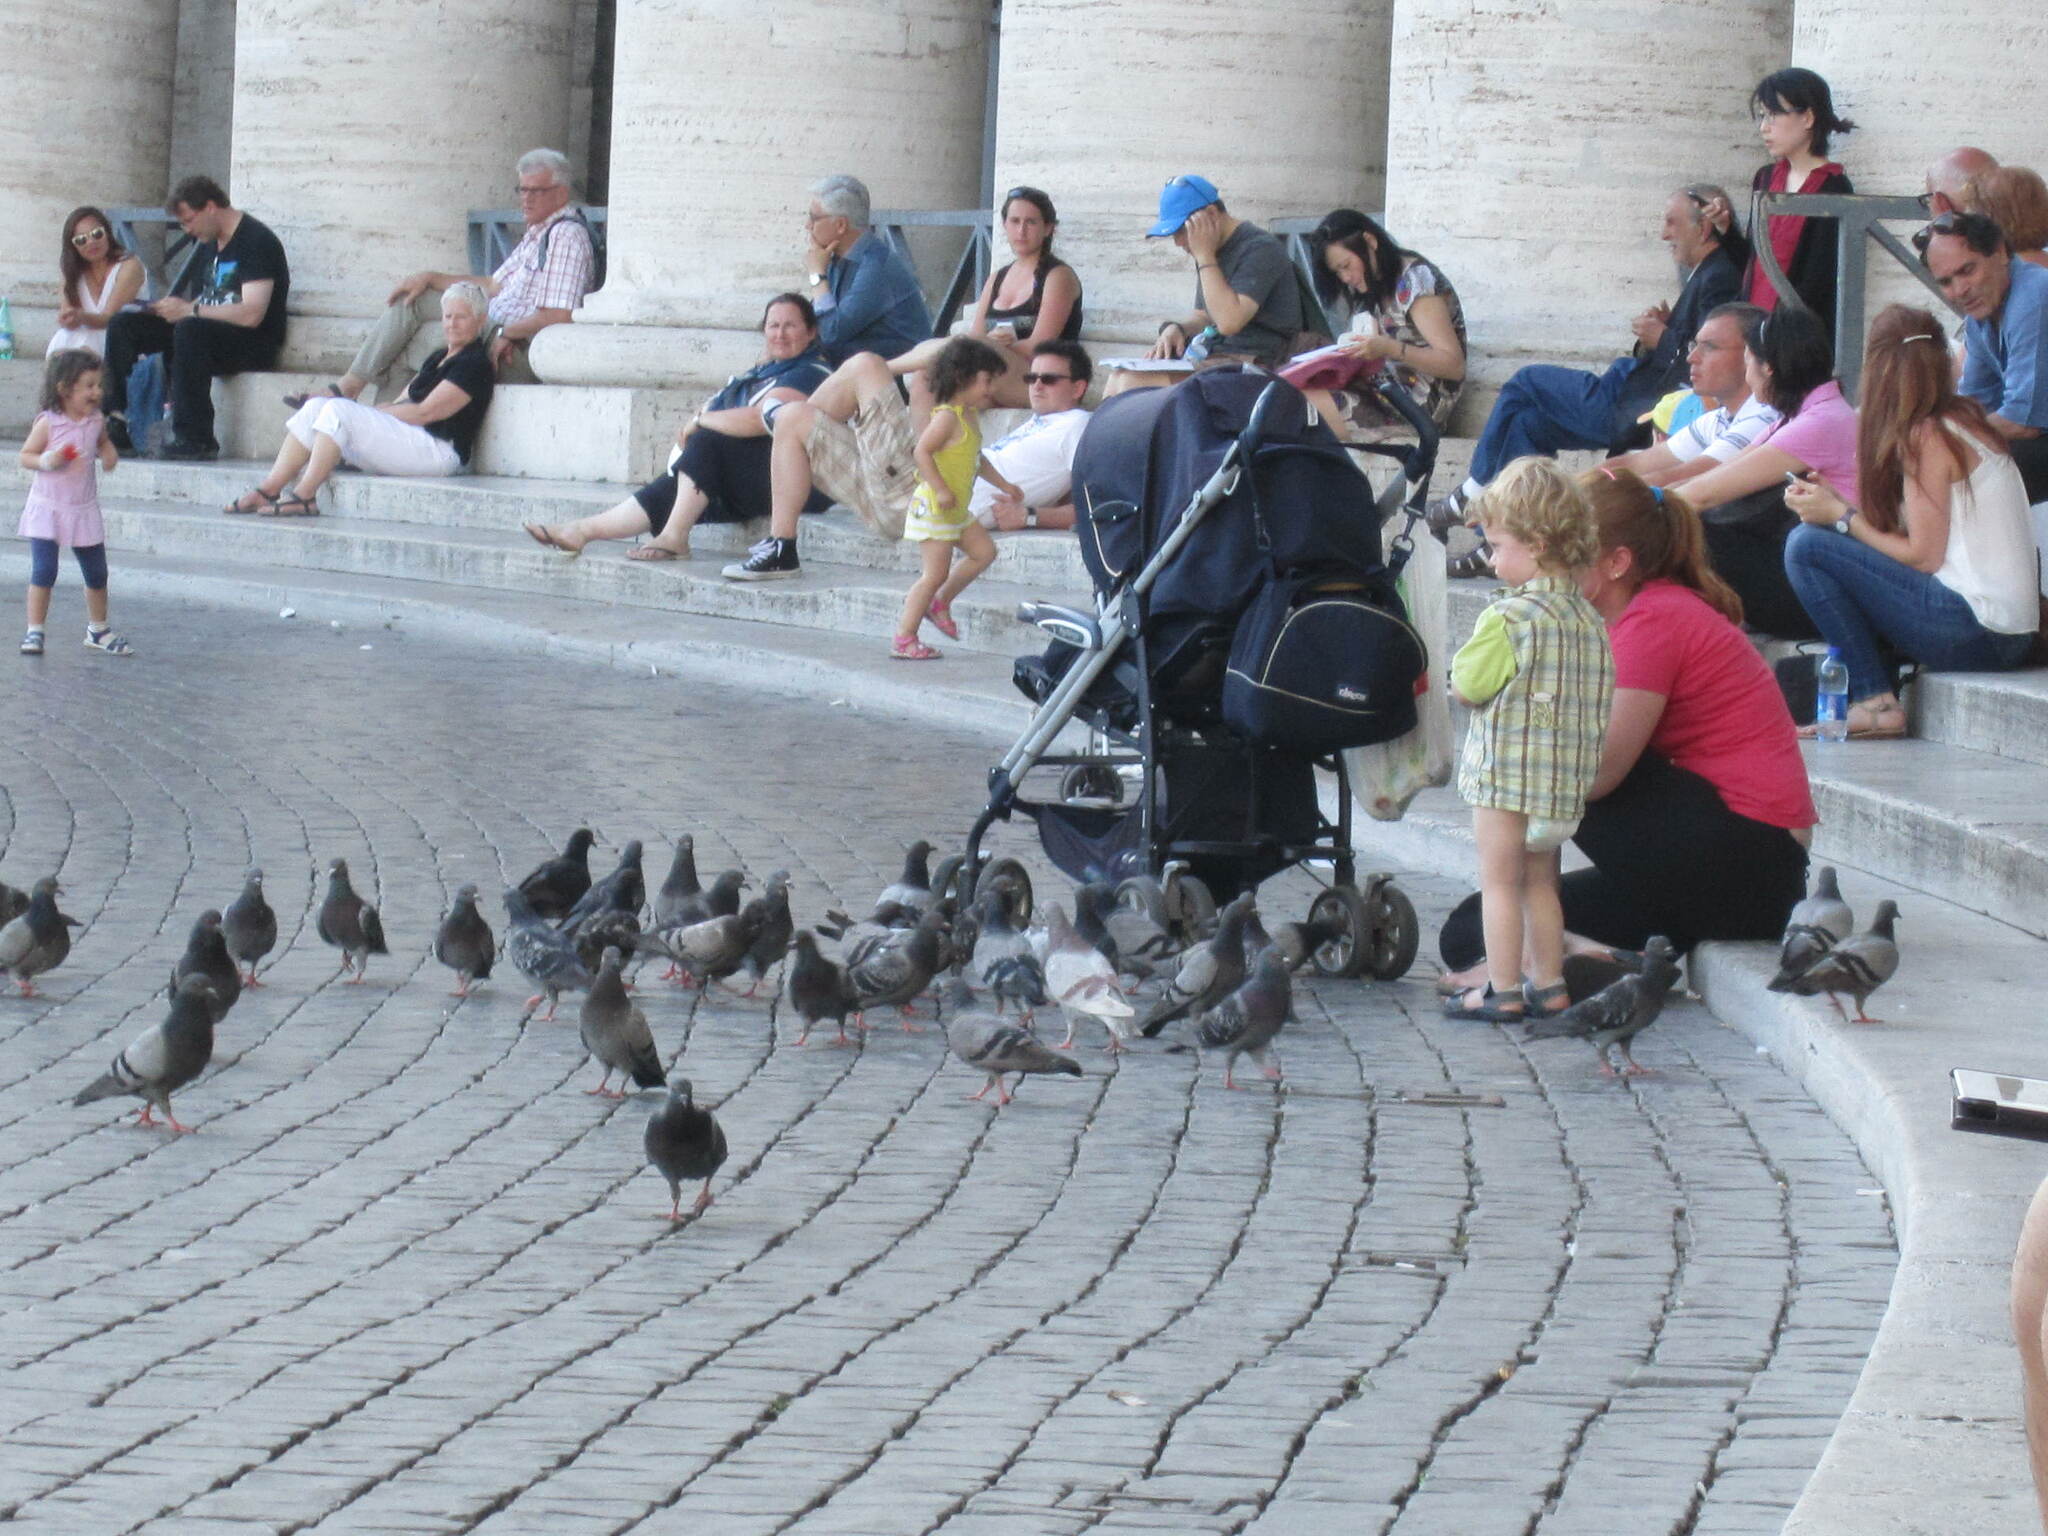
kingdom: Animalia
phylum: Chordata
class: Aves
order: Columbiformes
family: Columbidae
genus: Columba
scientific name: Columba livia
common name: Rock pigeon
